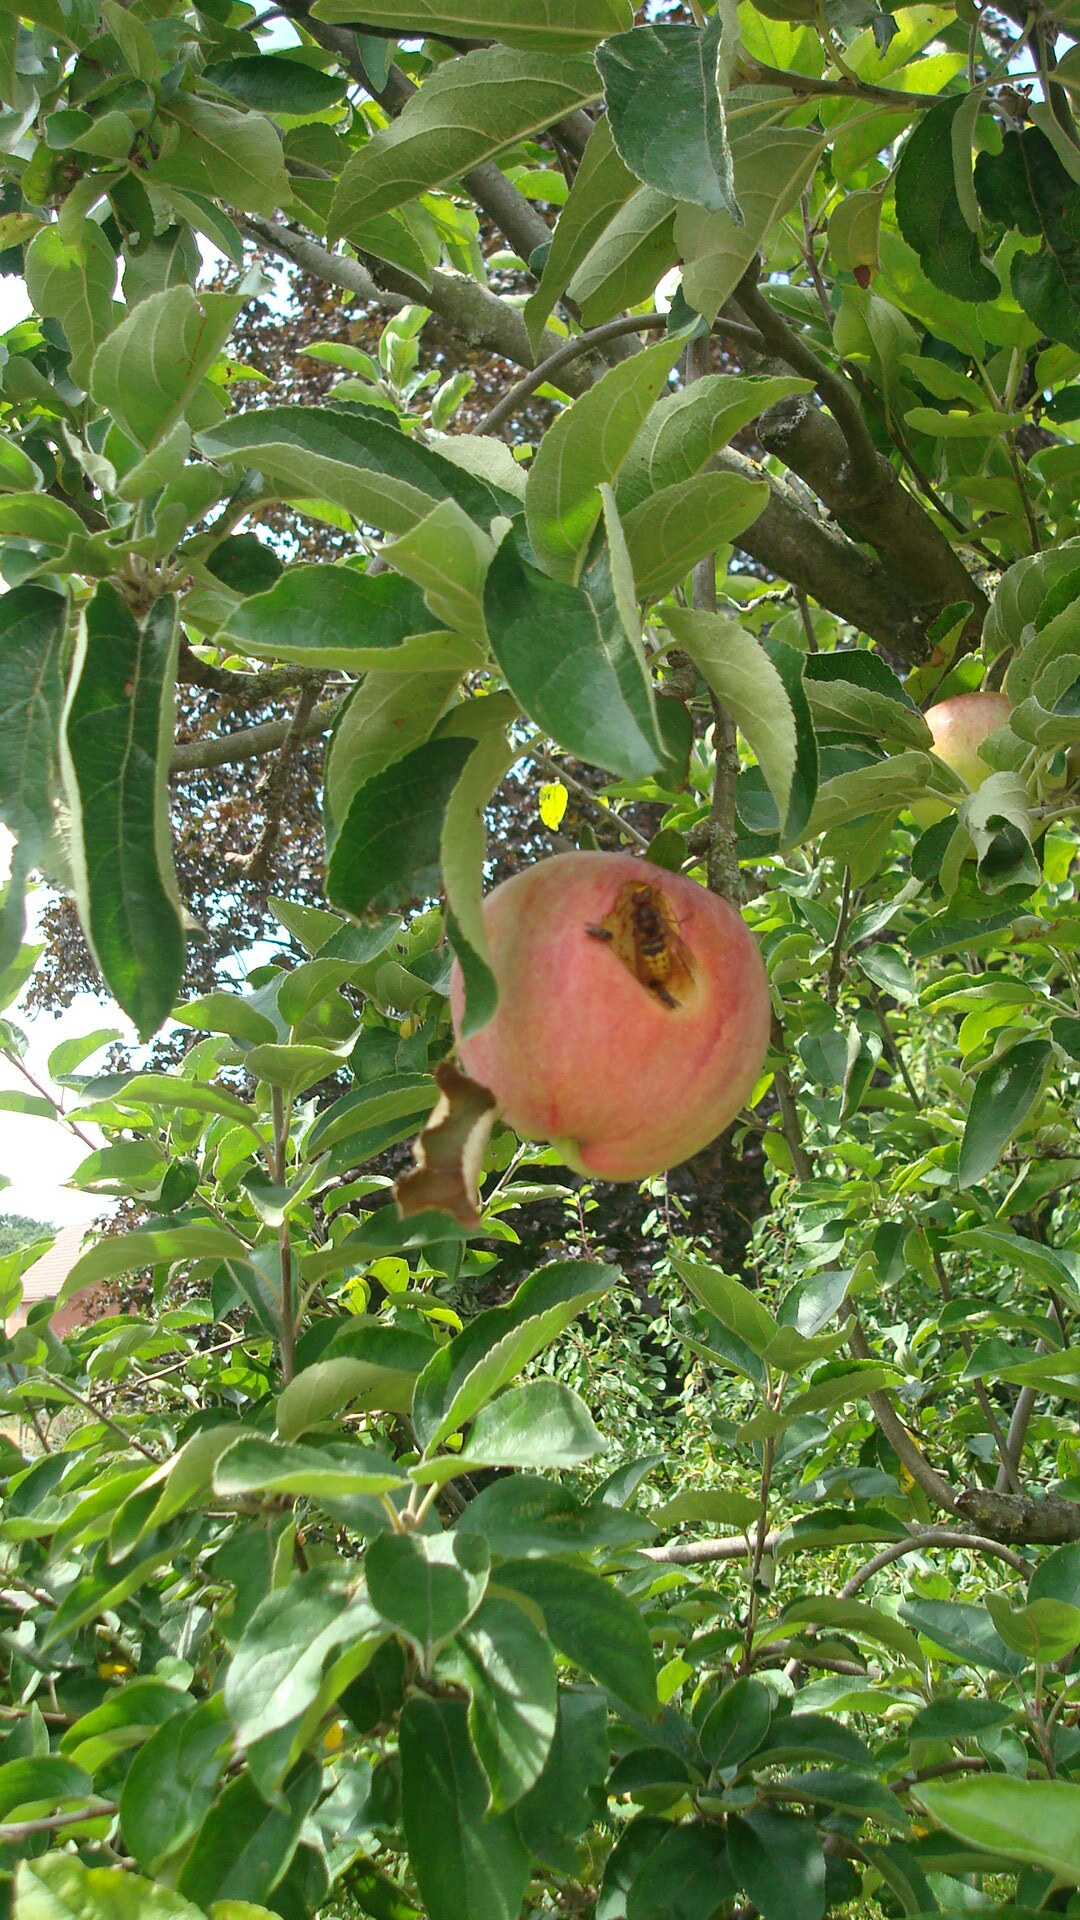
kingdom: Animalia
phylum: Arthropoda
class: Insecta
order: Hymenoptera
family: Vespidae
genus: Vespa
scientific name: Vespa crabro
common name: Hornet
